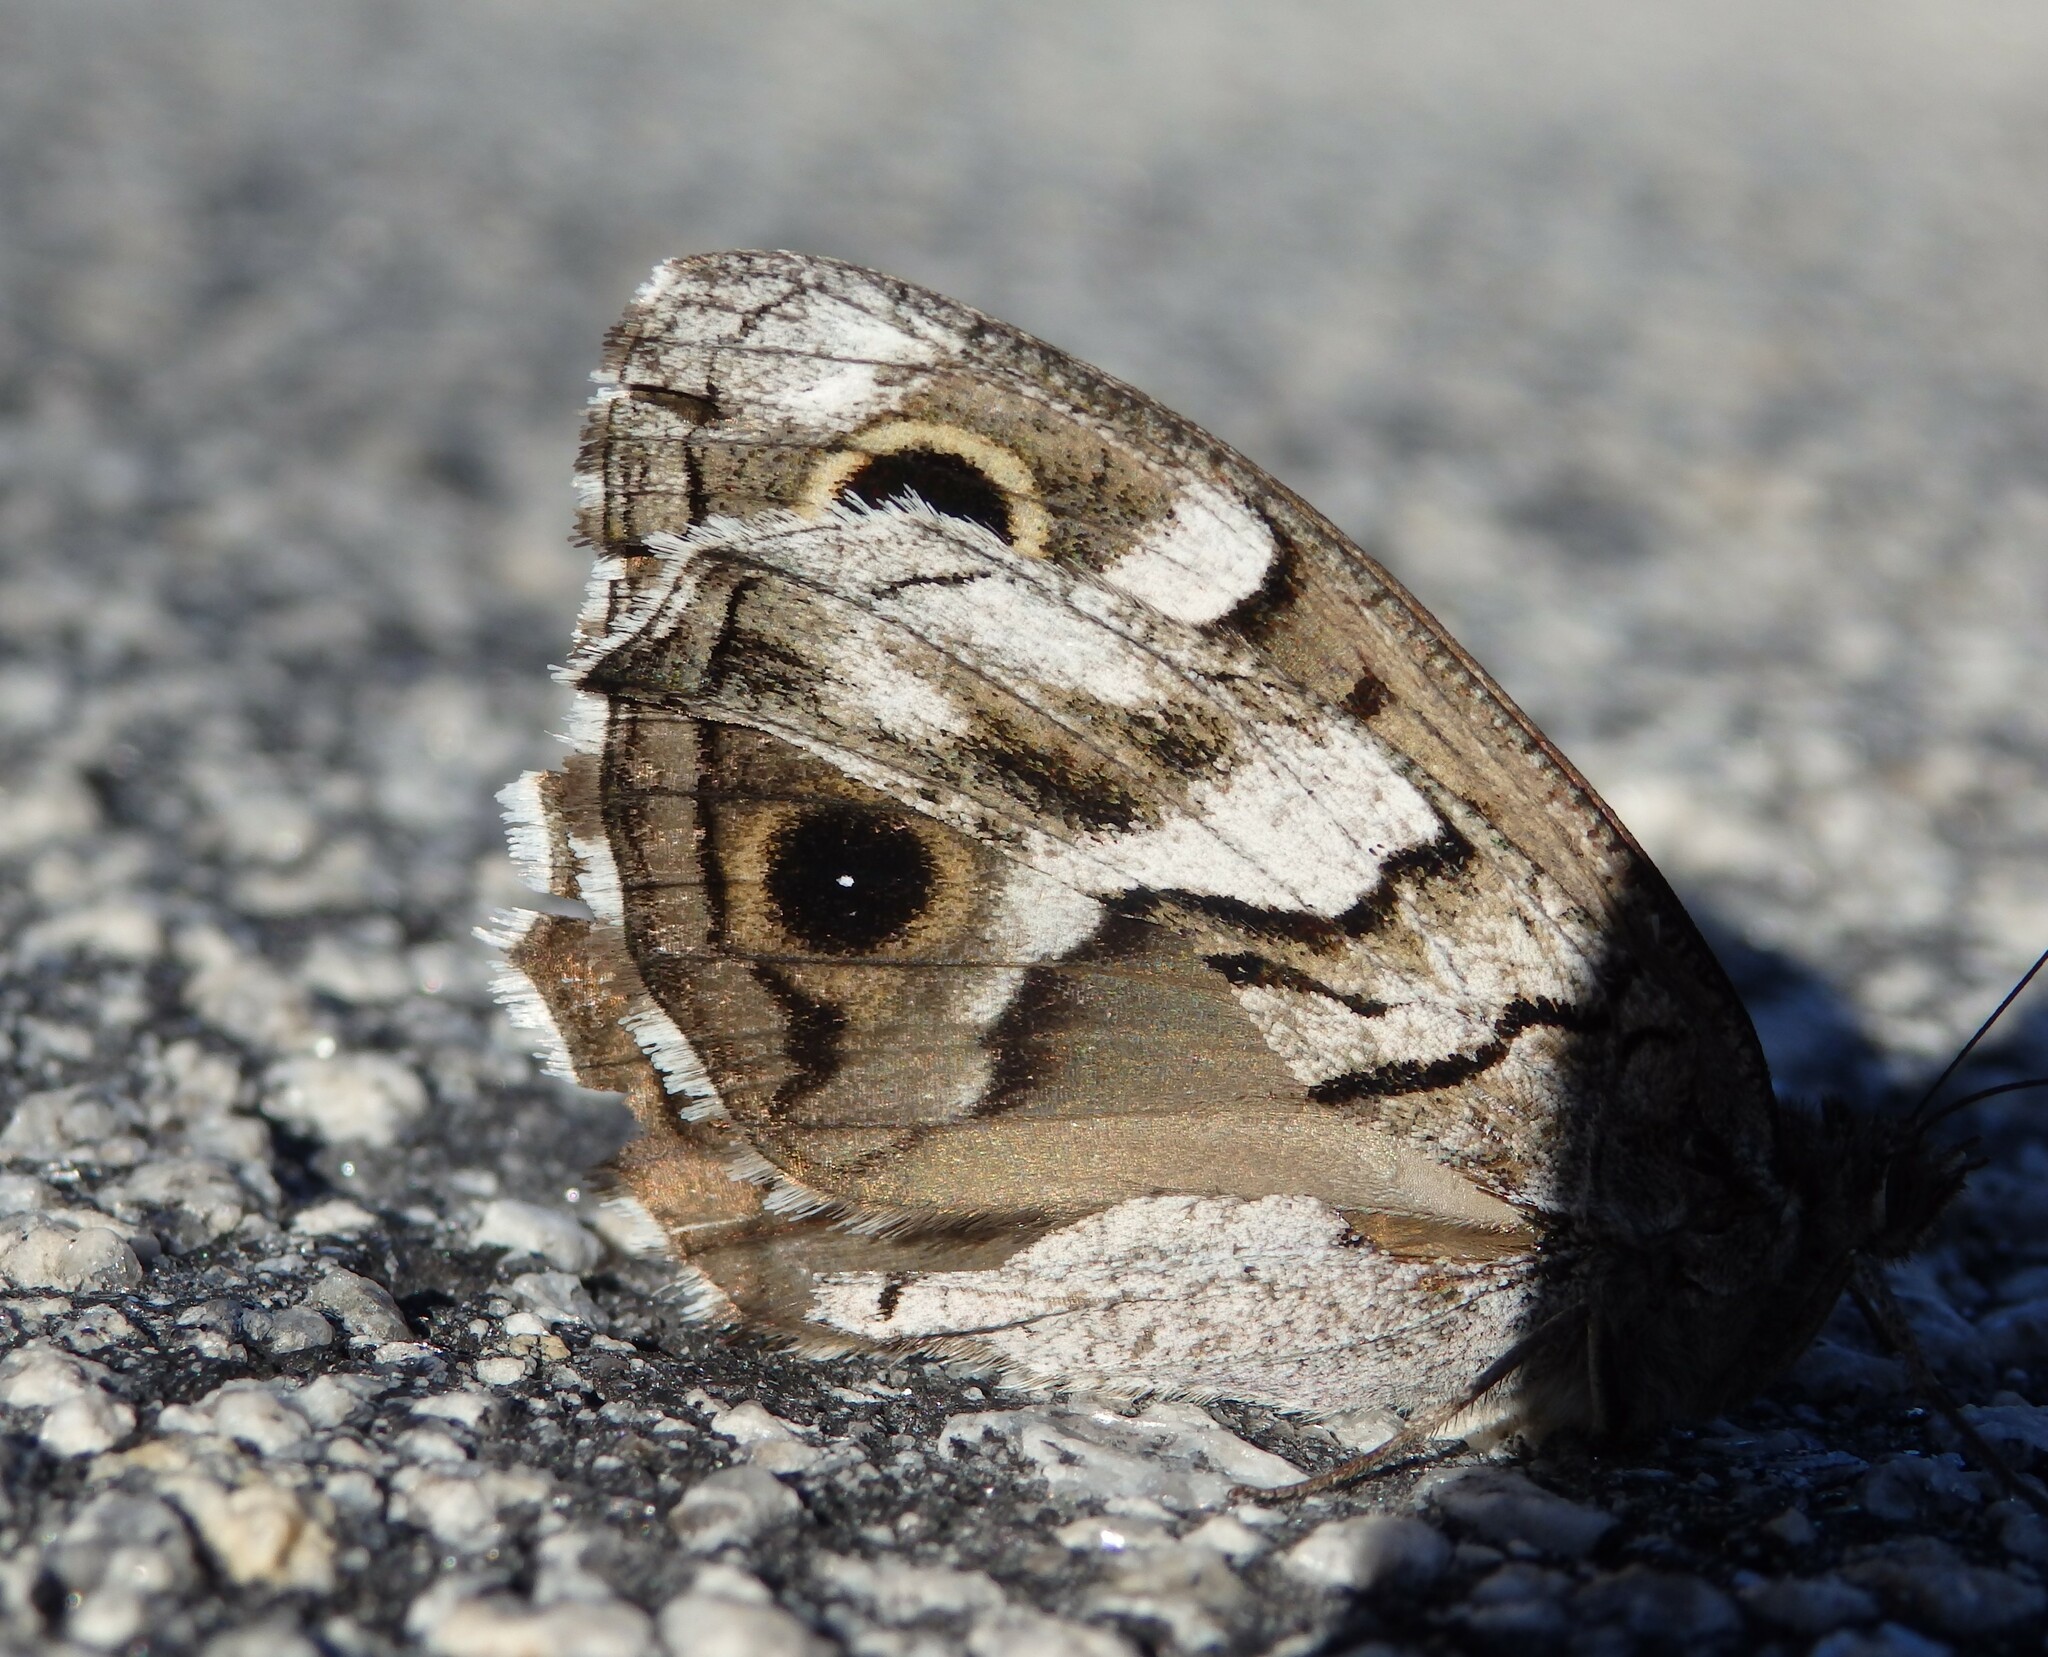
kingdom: Animalia
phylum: Arthropoda
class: Insecta
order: Lepidoptera
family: Nymphalidae
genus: Hipparchia
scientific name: Hipparchia fidia
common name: Striped grayling
